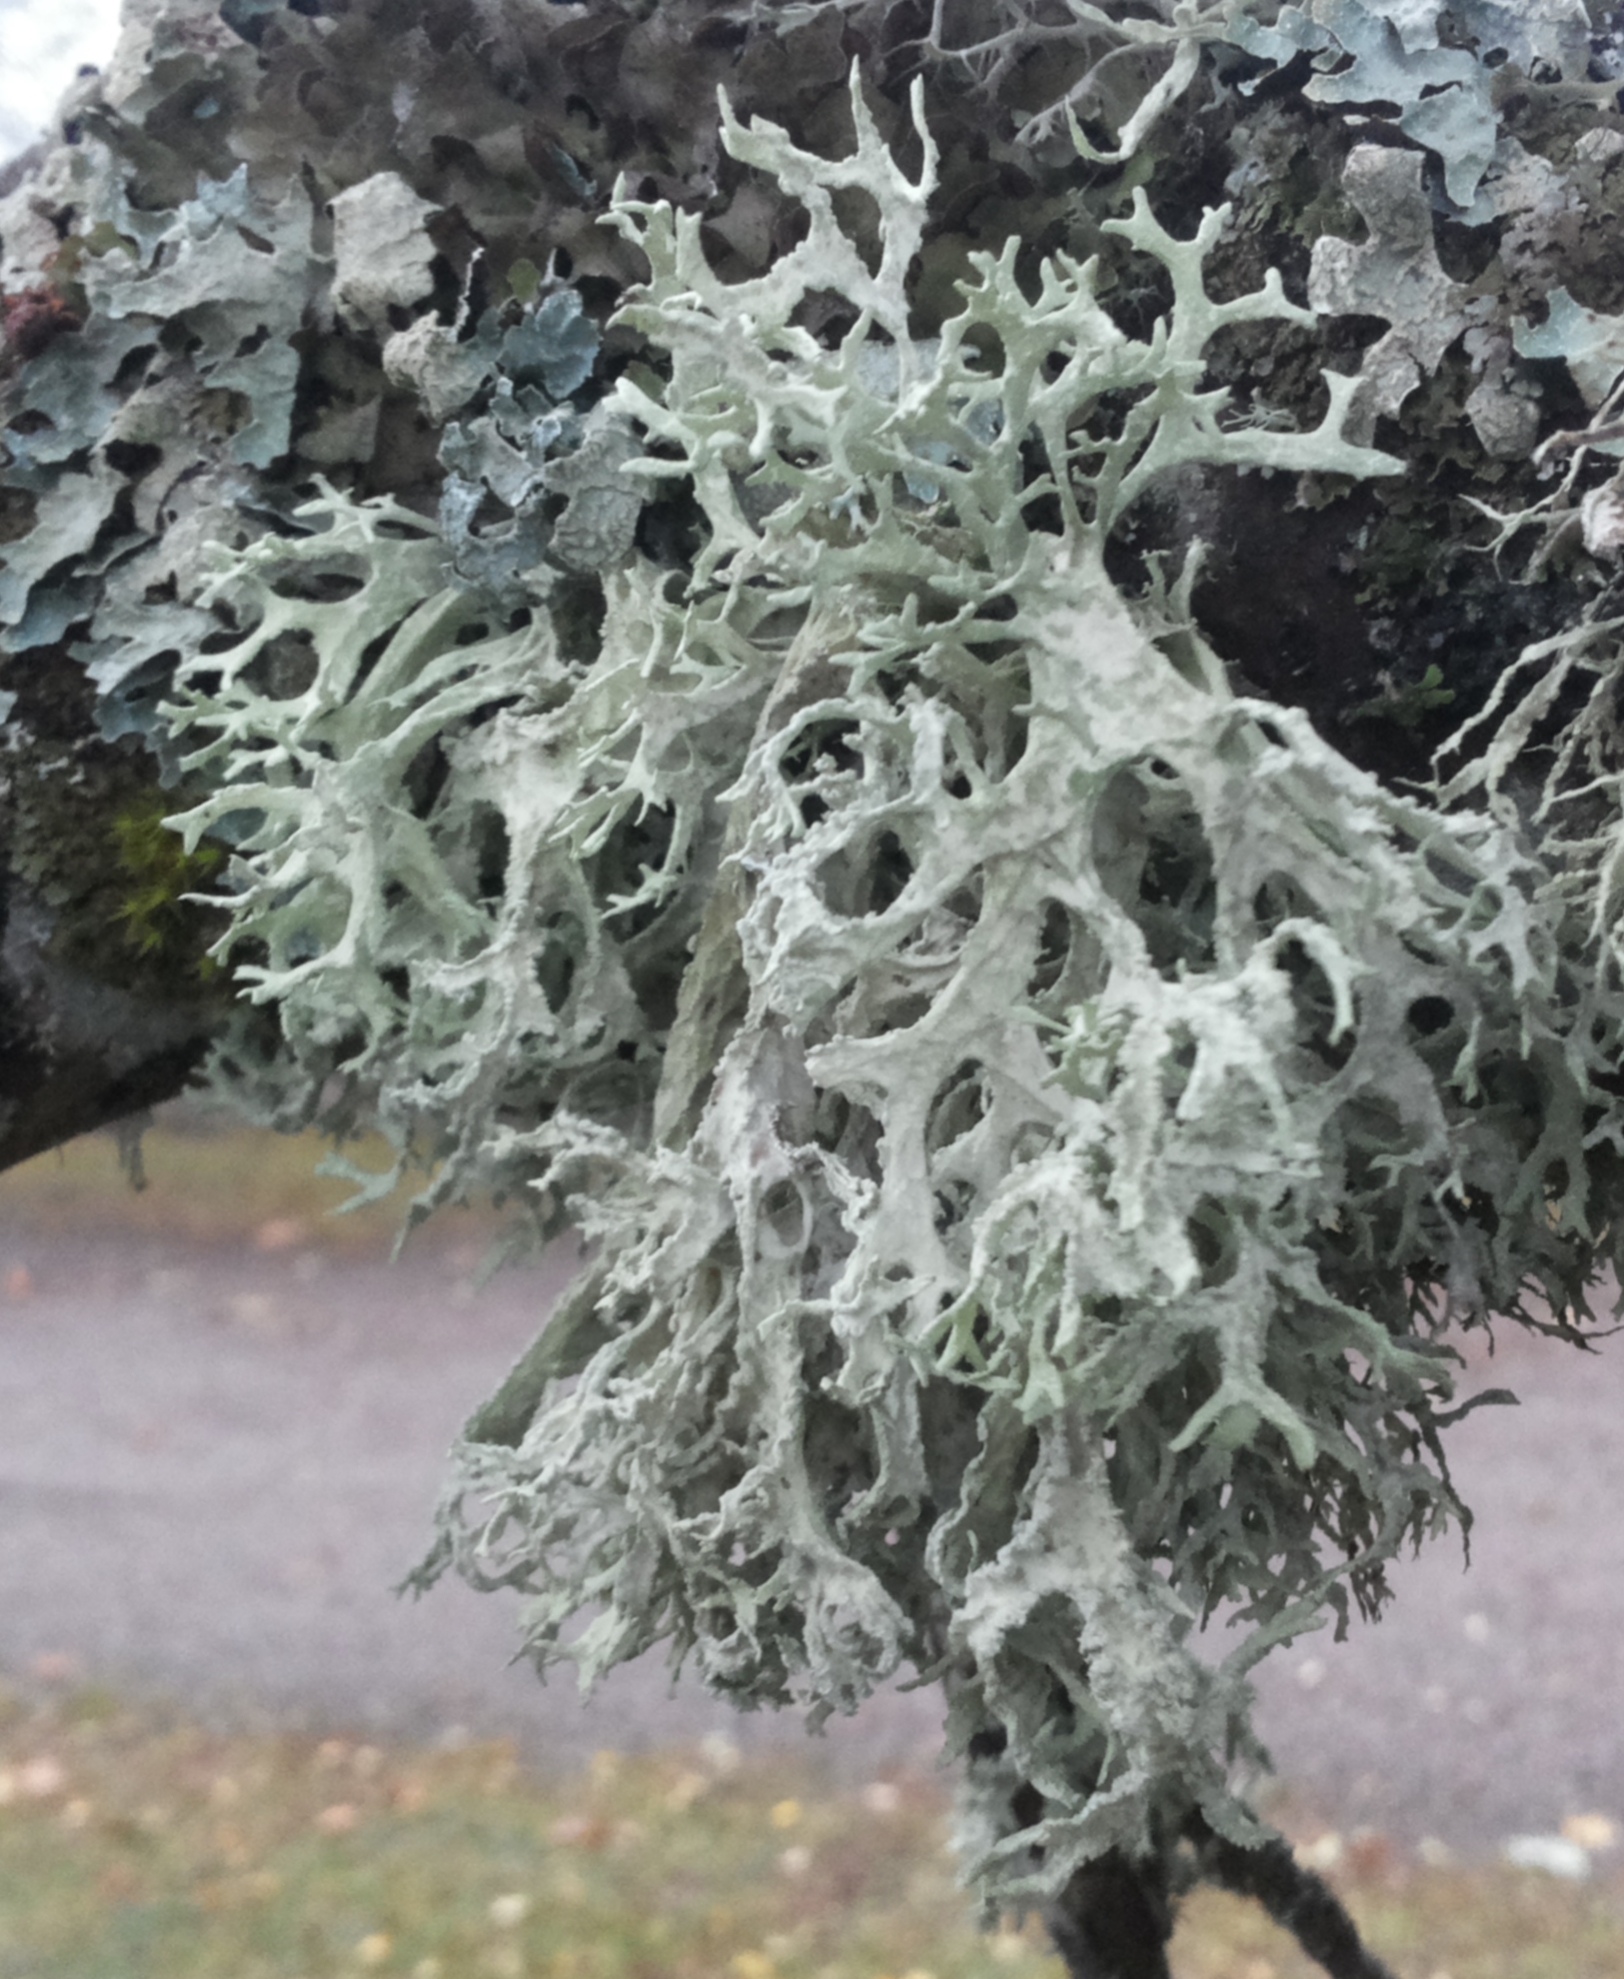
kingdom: Fungi
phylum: Ascomycota
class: Lecanoromycetes
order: Lecanorales
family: Parmeliaceae
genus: Evernia
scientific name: Evernia prunastri
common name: Oak moss
